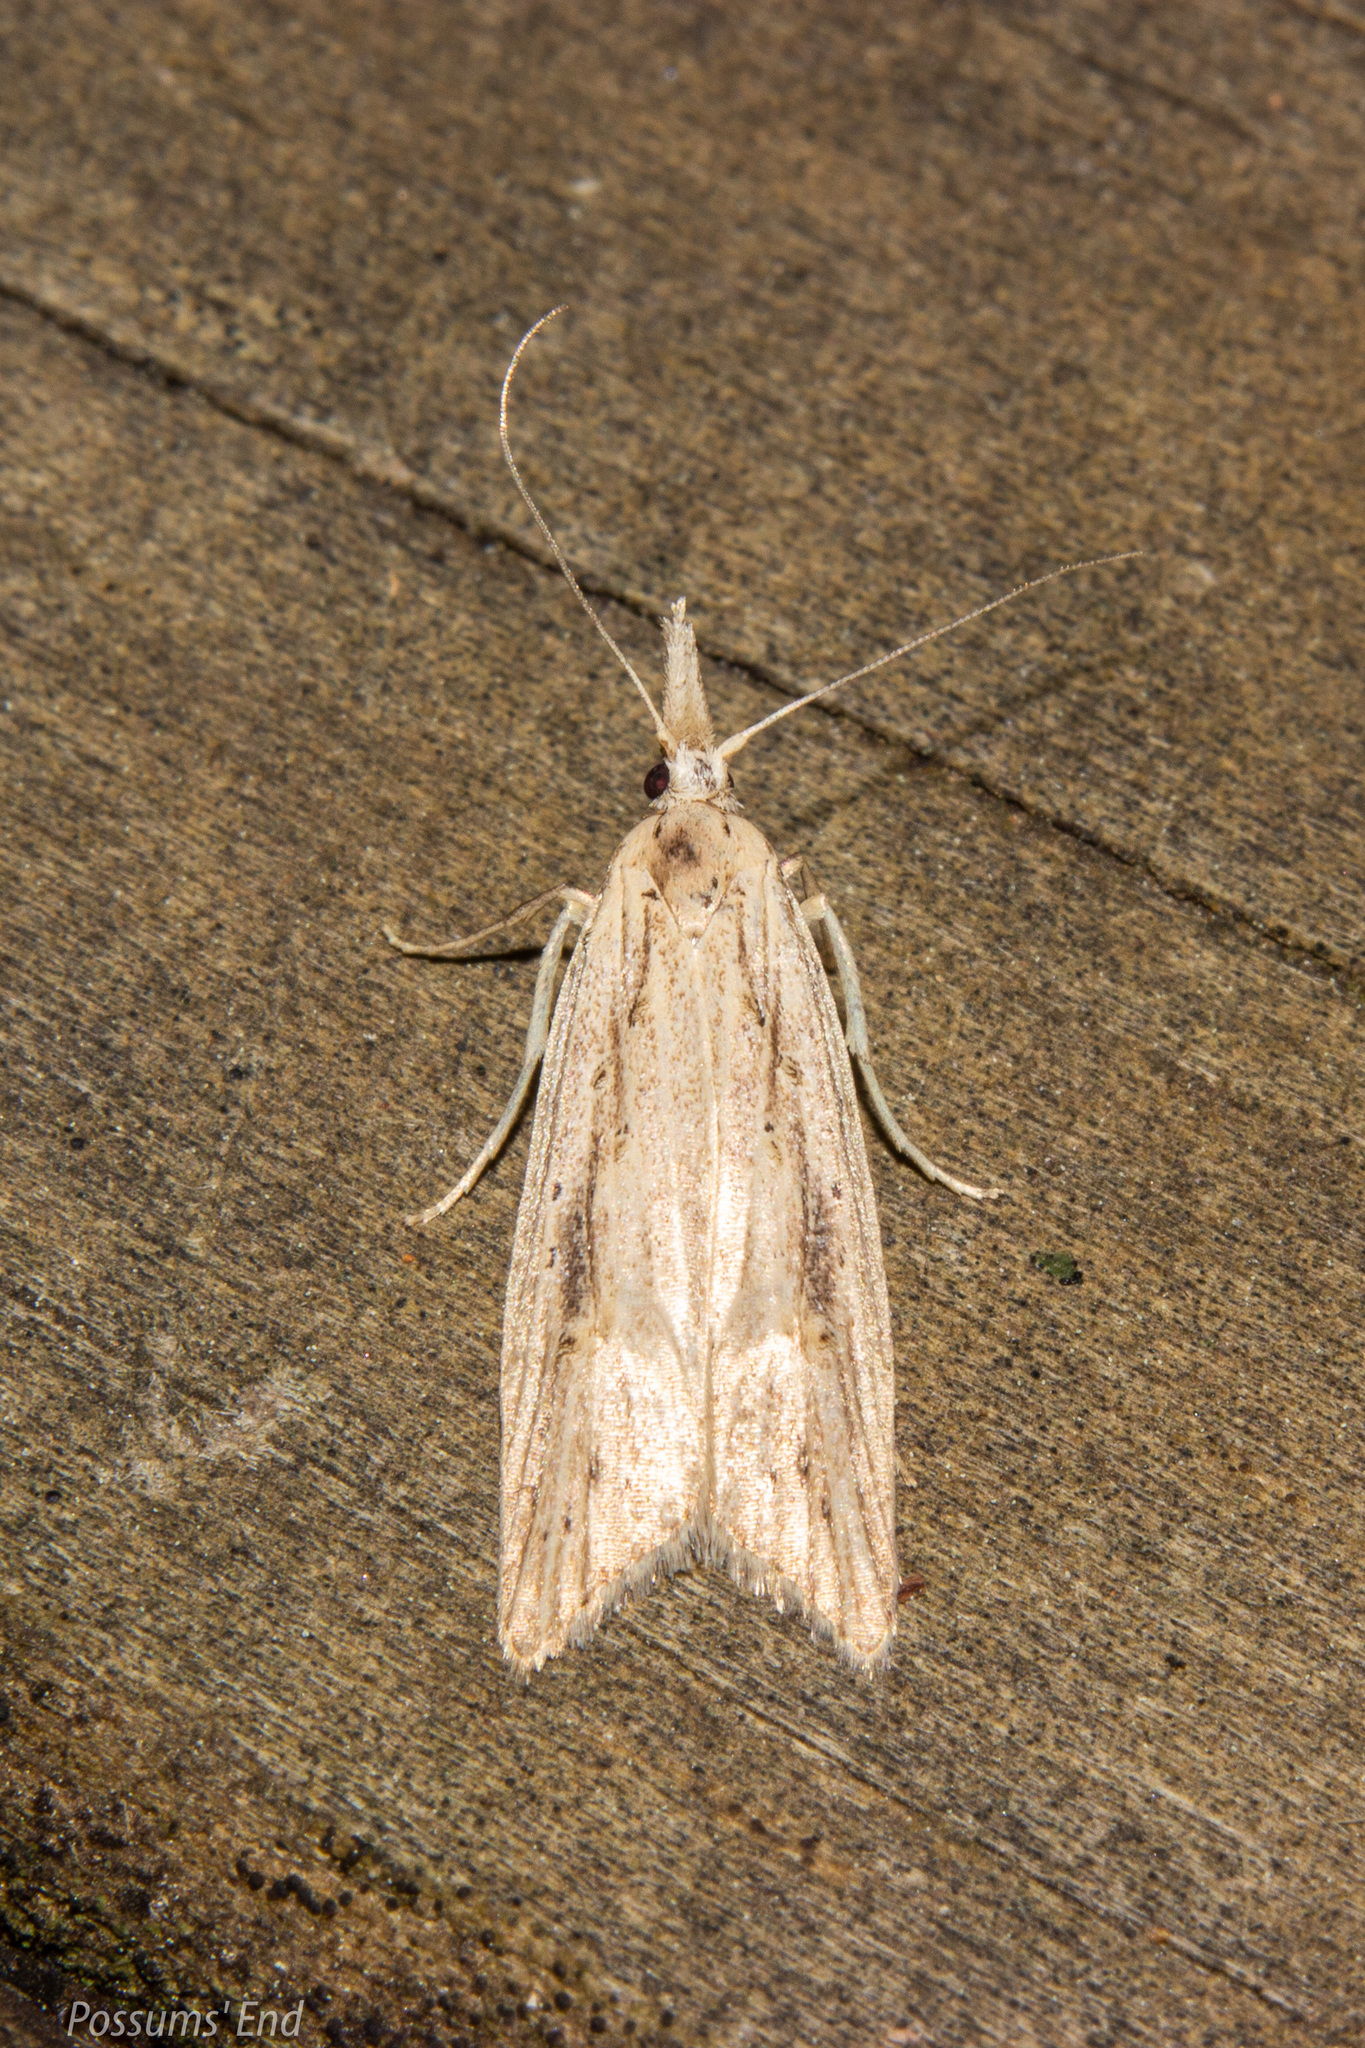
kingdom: Animalia
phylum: Arthropoda
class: Insecta
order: Lepidoptera
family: Carposinidae
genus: Carposina
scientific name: Carposina Heterocrossa exochana
